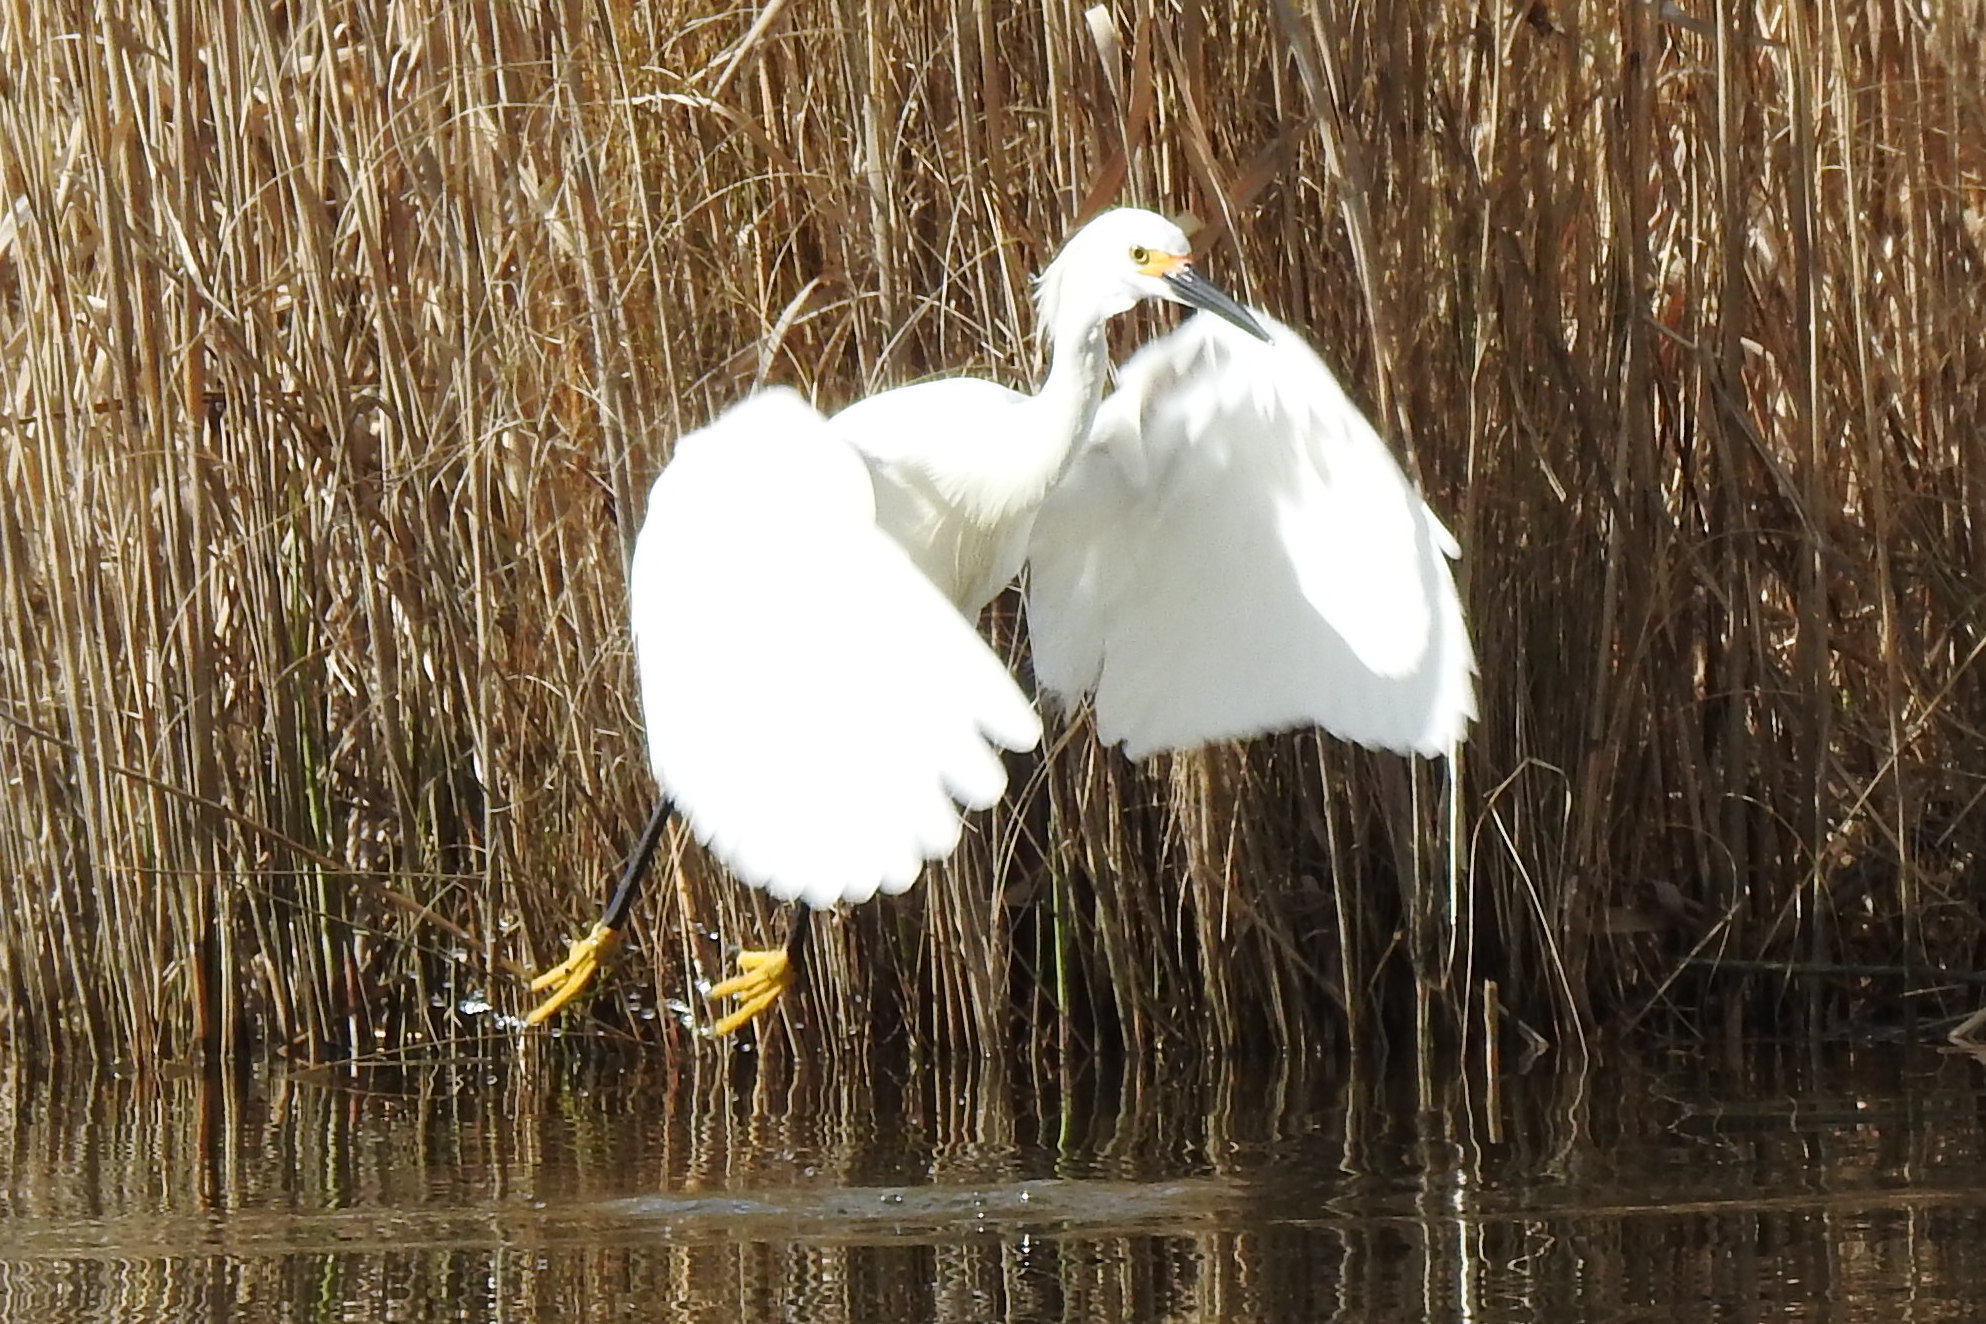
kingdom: Animalia
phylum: Chordata
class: Aves
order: Pelecaniformes
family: Ardeidae
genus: Egretta
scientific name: Egretta thula
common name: Snowy egret
